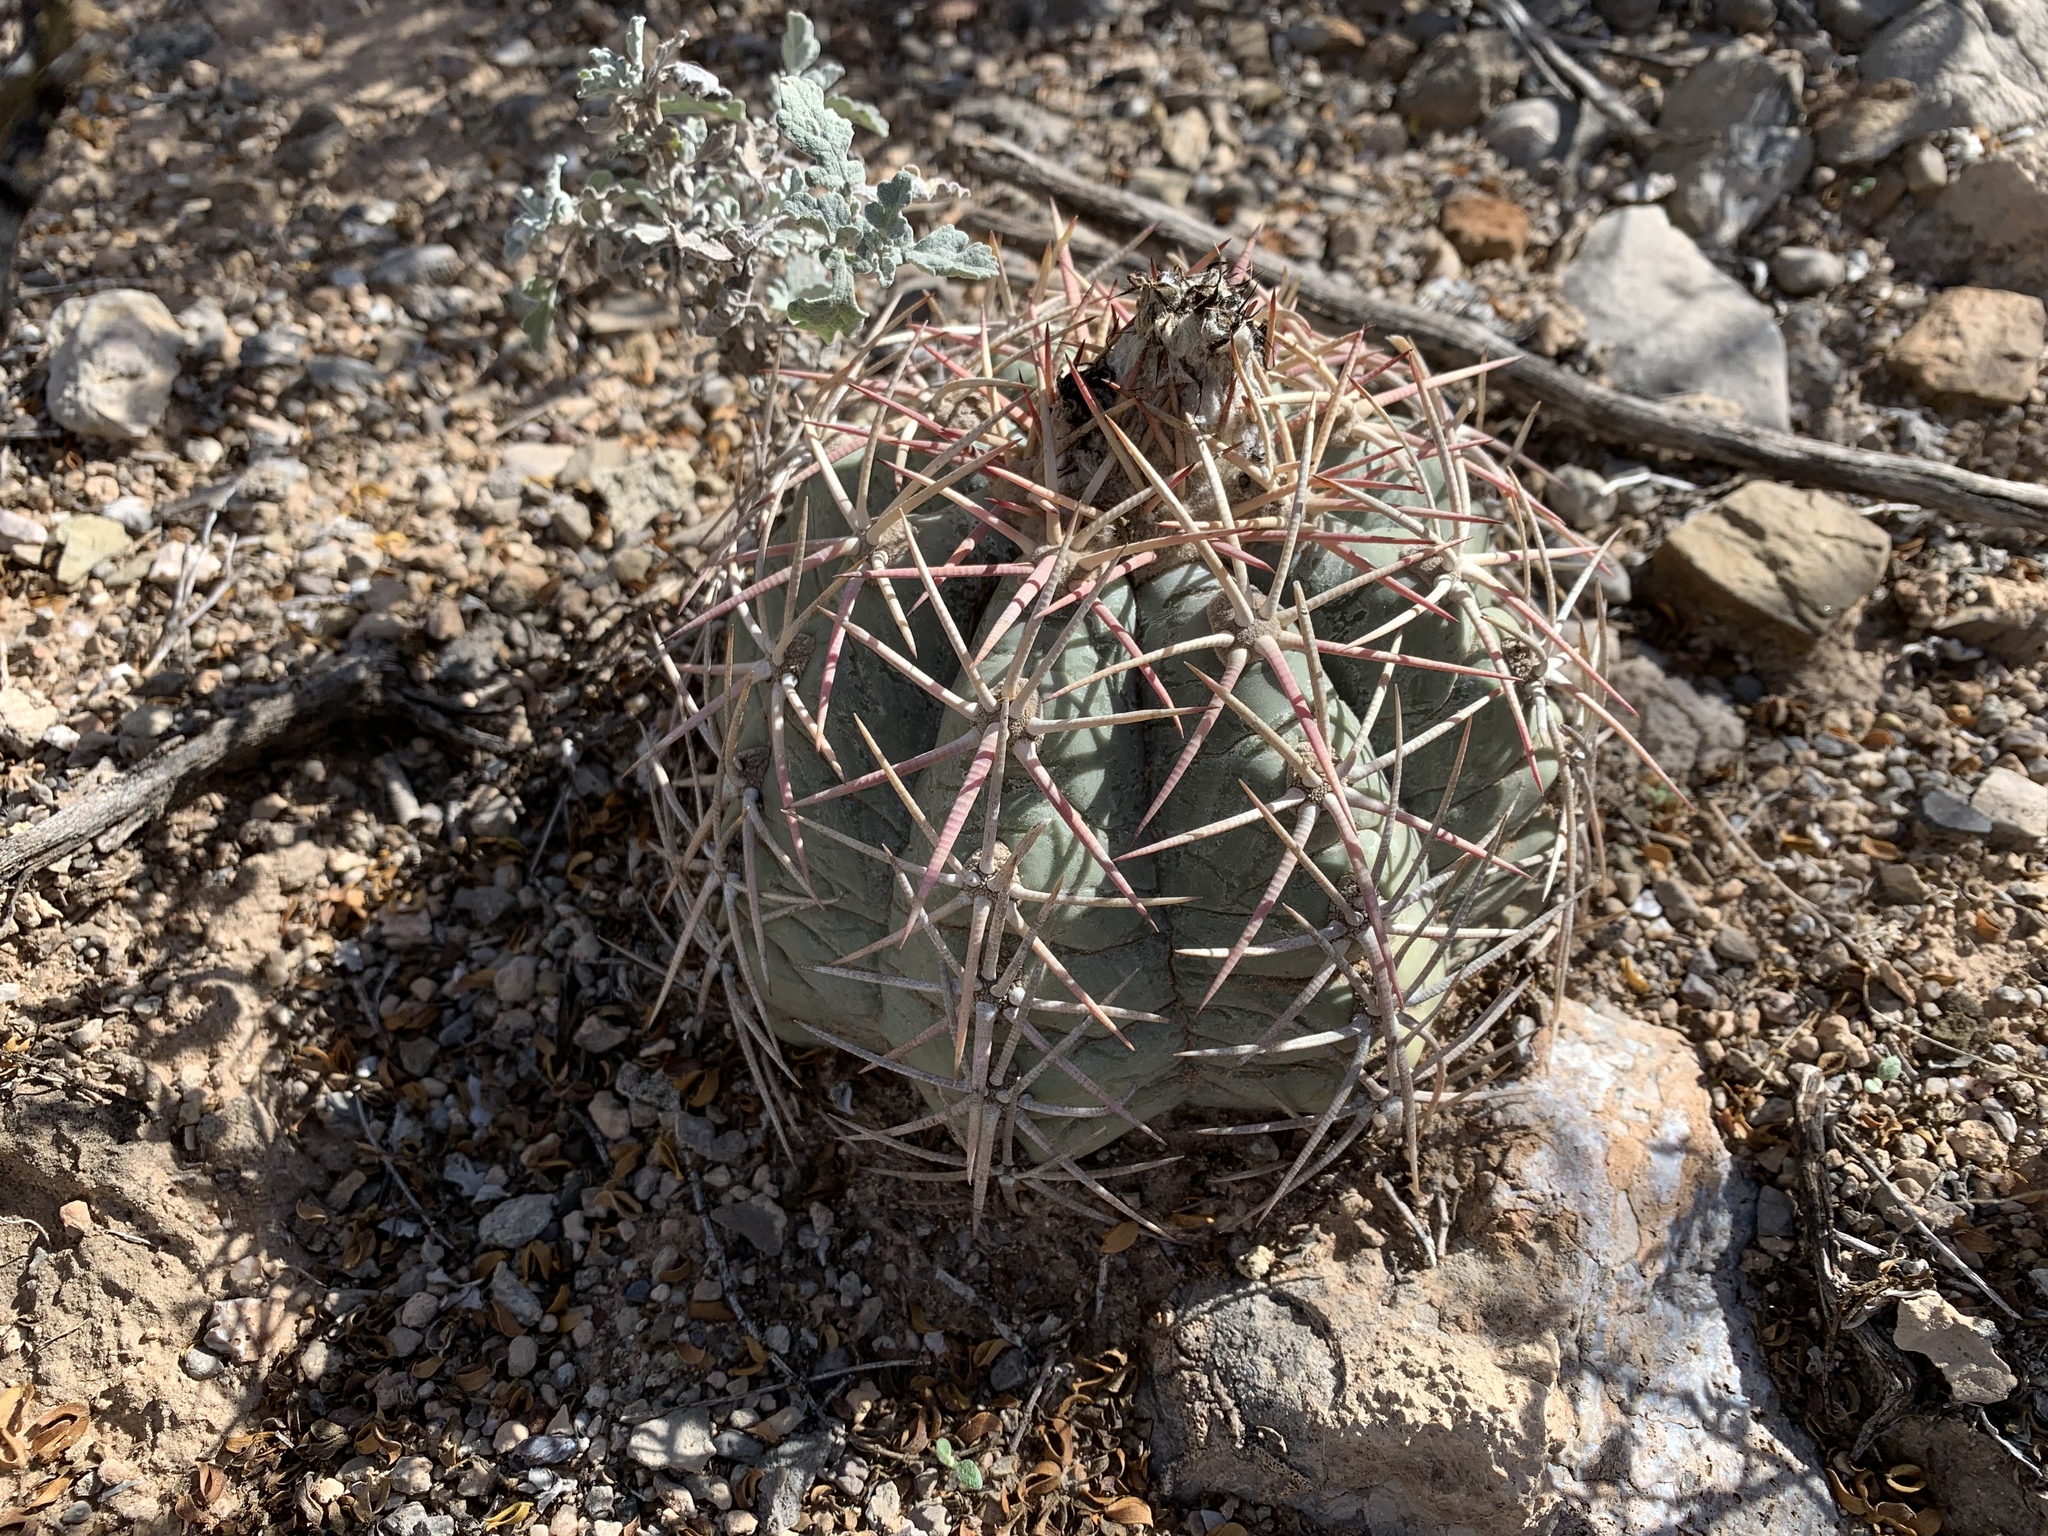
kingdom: Plantae
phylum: Tracheophyta
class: Magnoliopsida
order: Caryophyllales
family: Cactaceae
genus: Echinocactus
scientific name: Echinocactus horizonthalonius
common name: Devilshead
